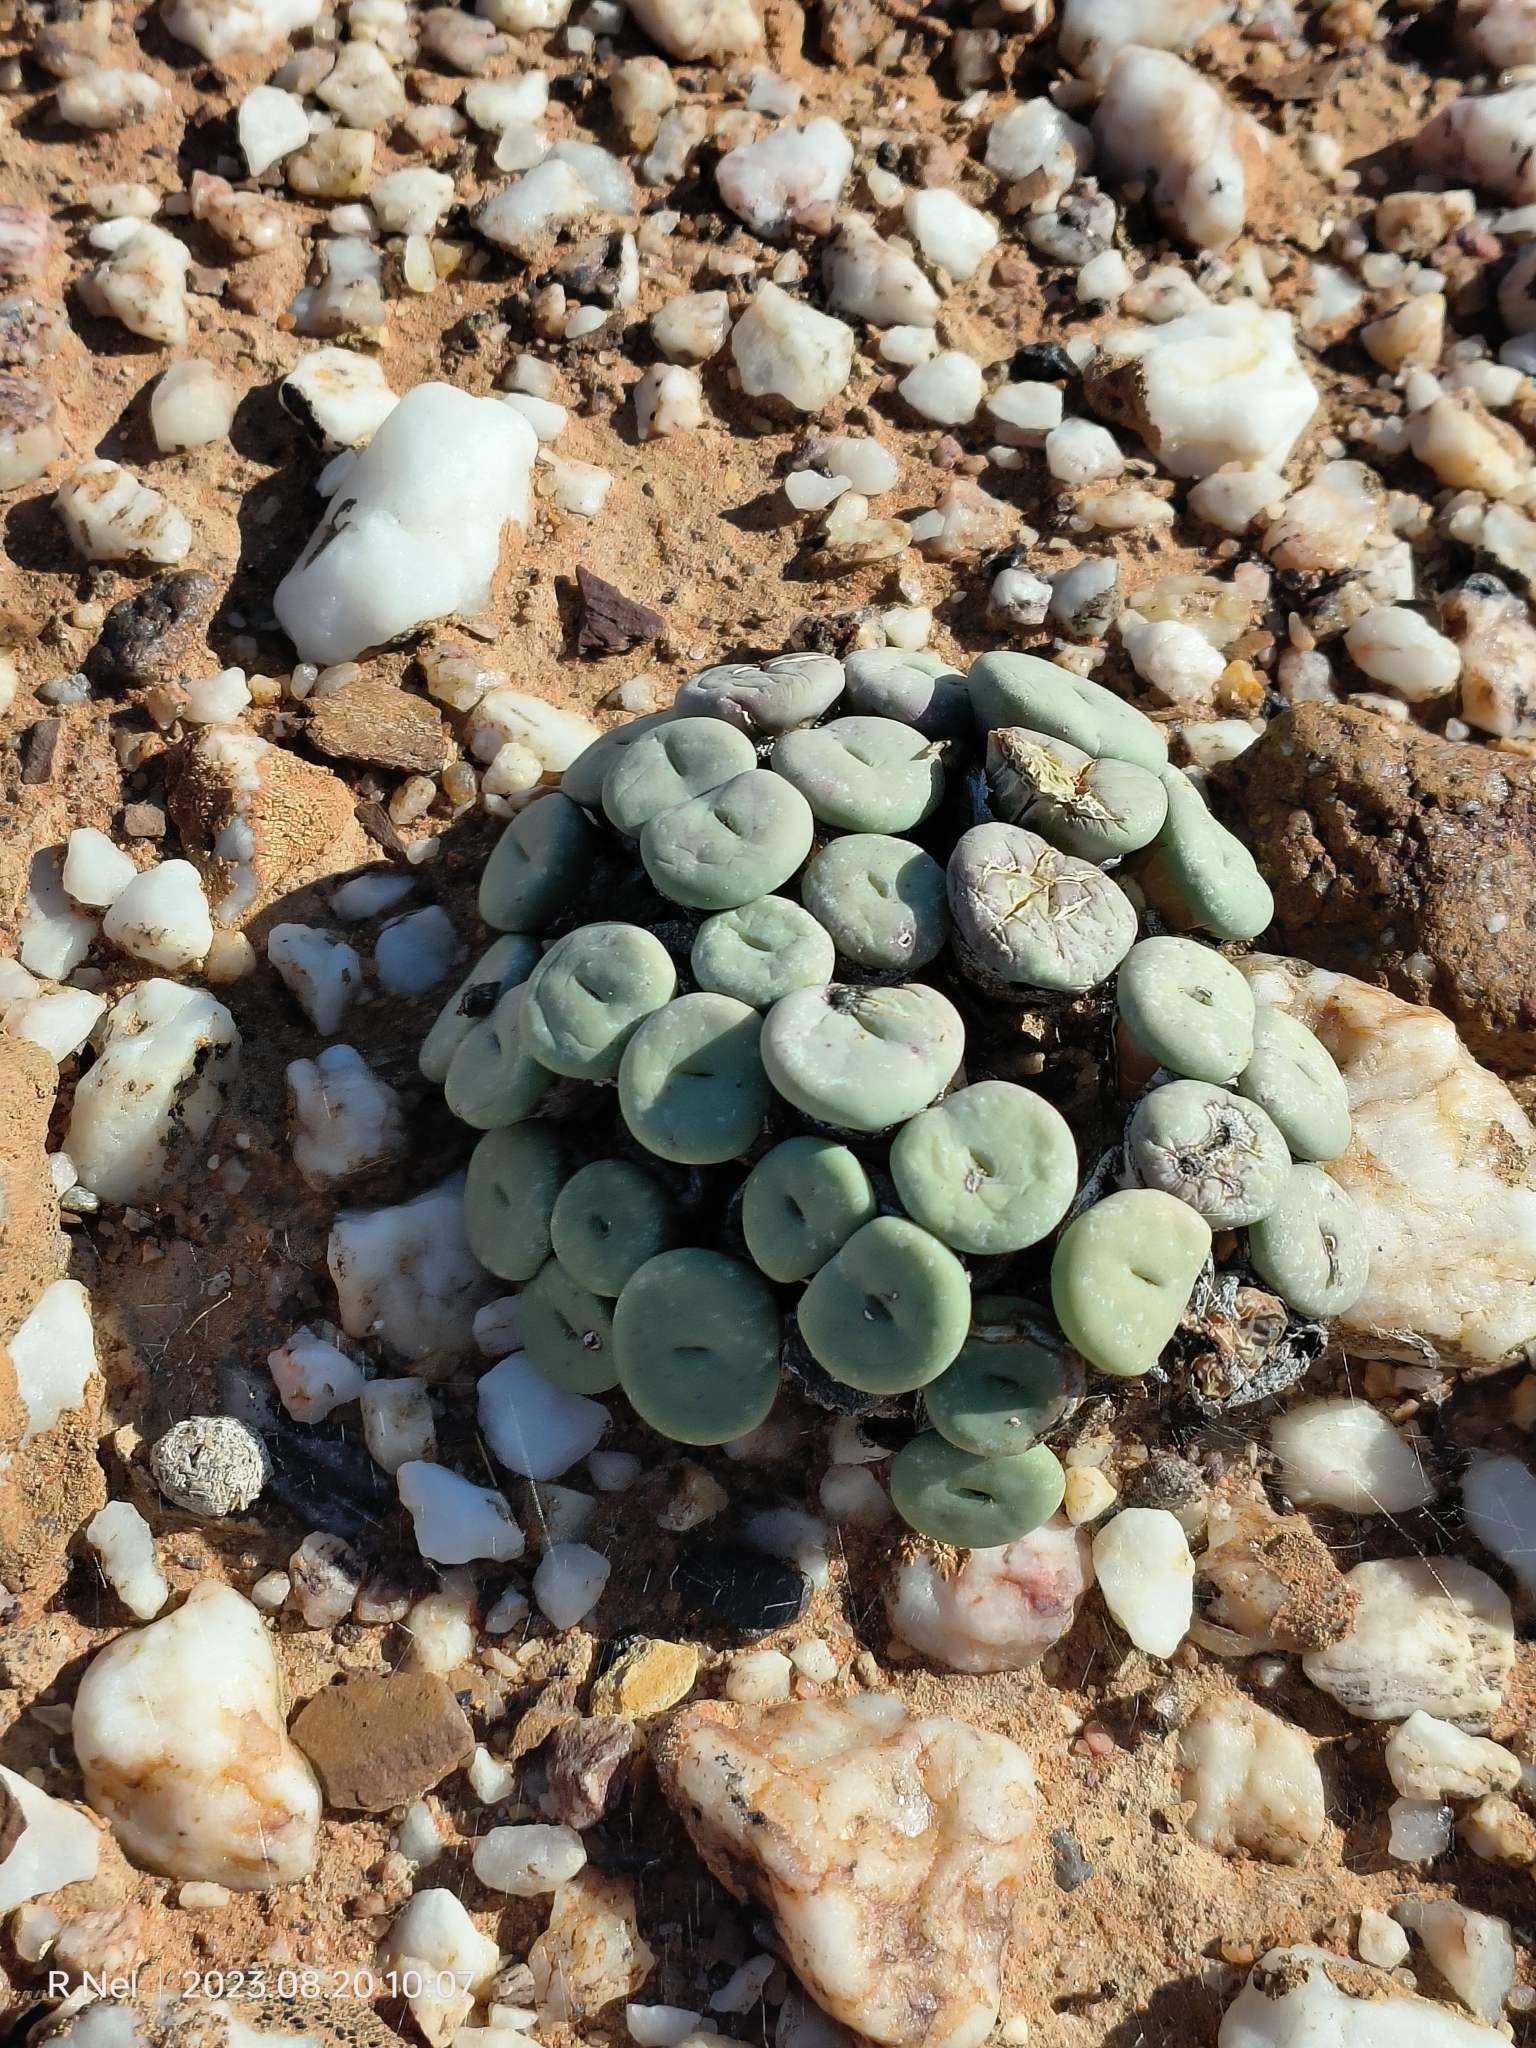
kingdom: Plantae
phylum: Tracheophyta
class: Magnoliopsida
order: Caryophyllales
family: Aizoaceae
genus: Conophytum
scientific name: Conophytum minutum
